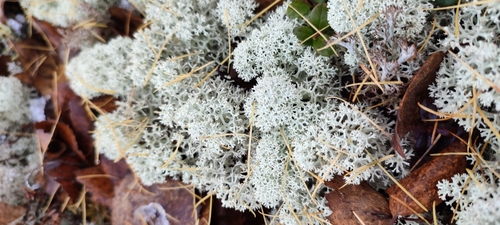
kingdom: Fungi
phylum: Ascomycota
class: Lecanoromycetes
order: Lecanorales
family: Cladoniaceae
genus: Cladonia
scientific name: Cladonia stellaris
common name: Star-tipped reindeer lichen
